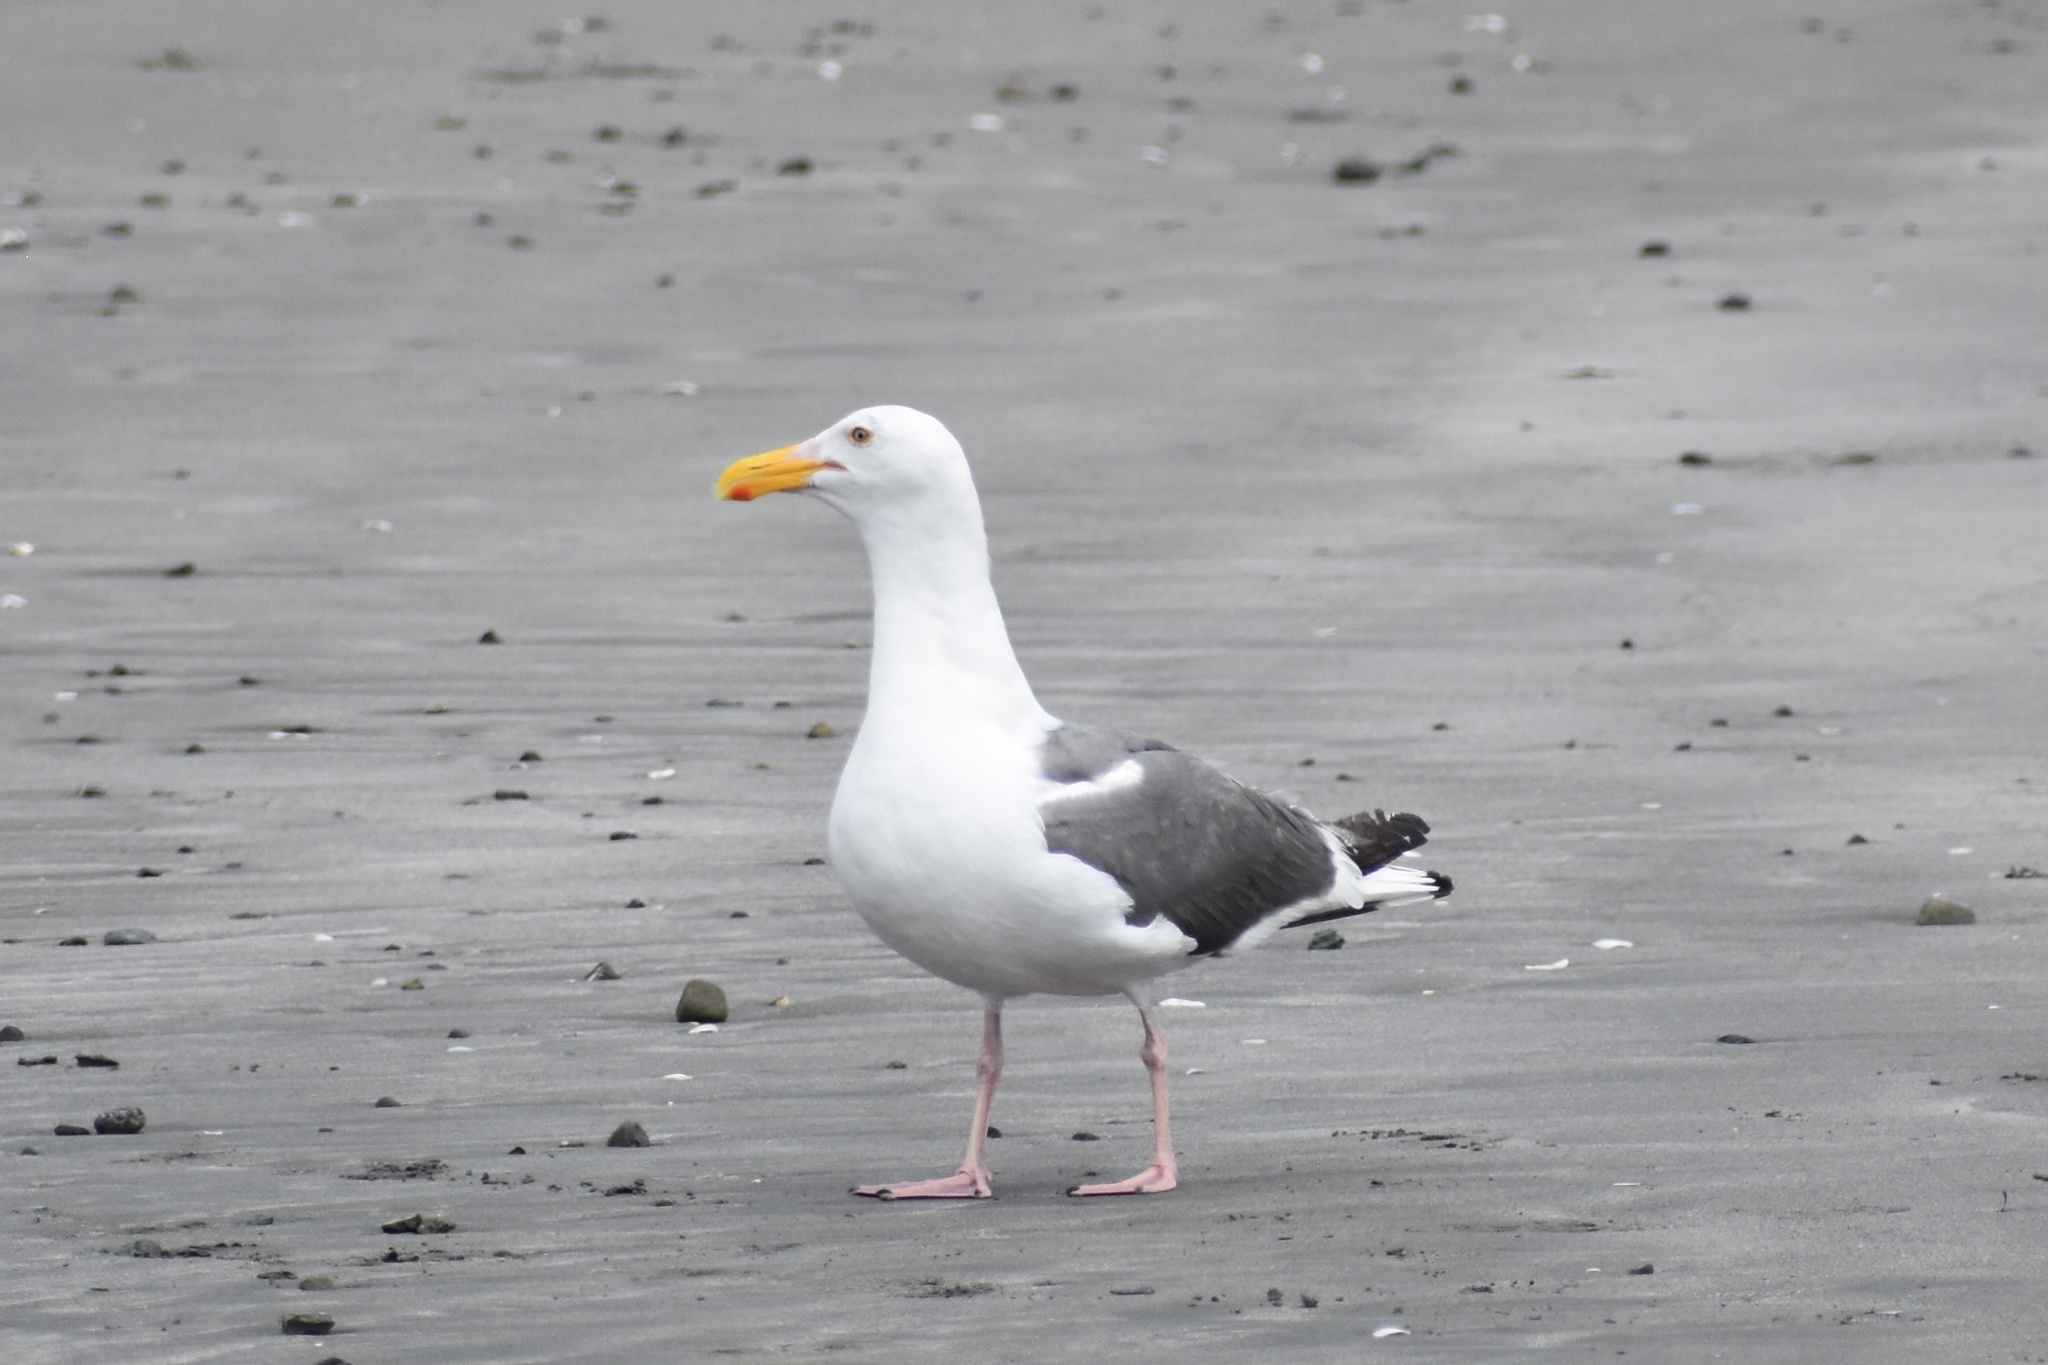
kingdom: Animalia
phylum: Chordata
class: Aves
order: Charadriiformes
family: Laridae
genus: Larus
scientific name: Larus occidentalis
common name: Western gull
